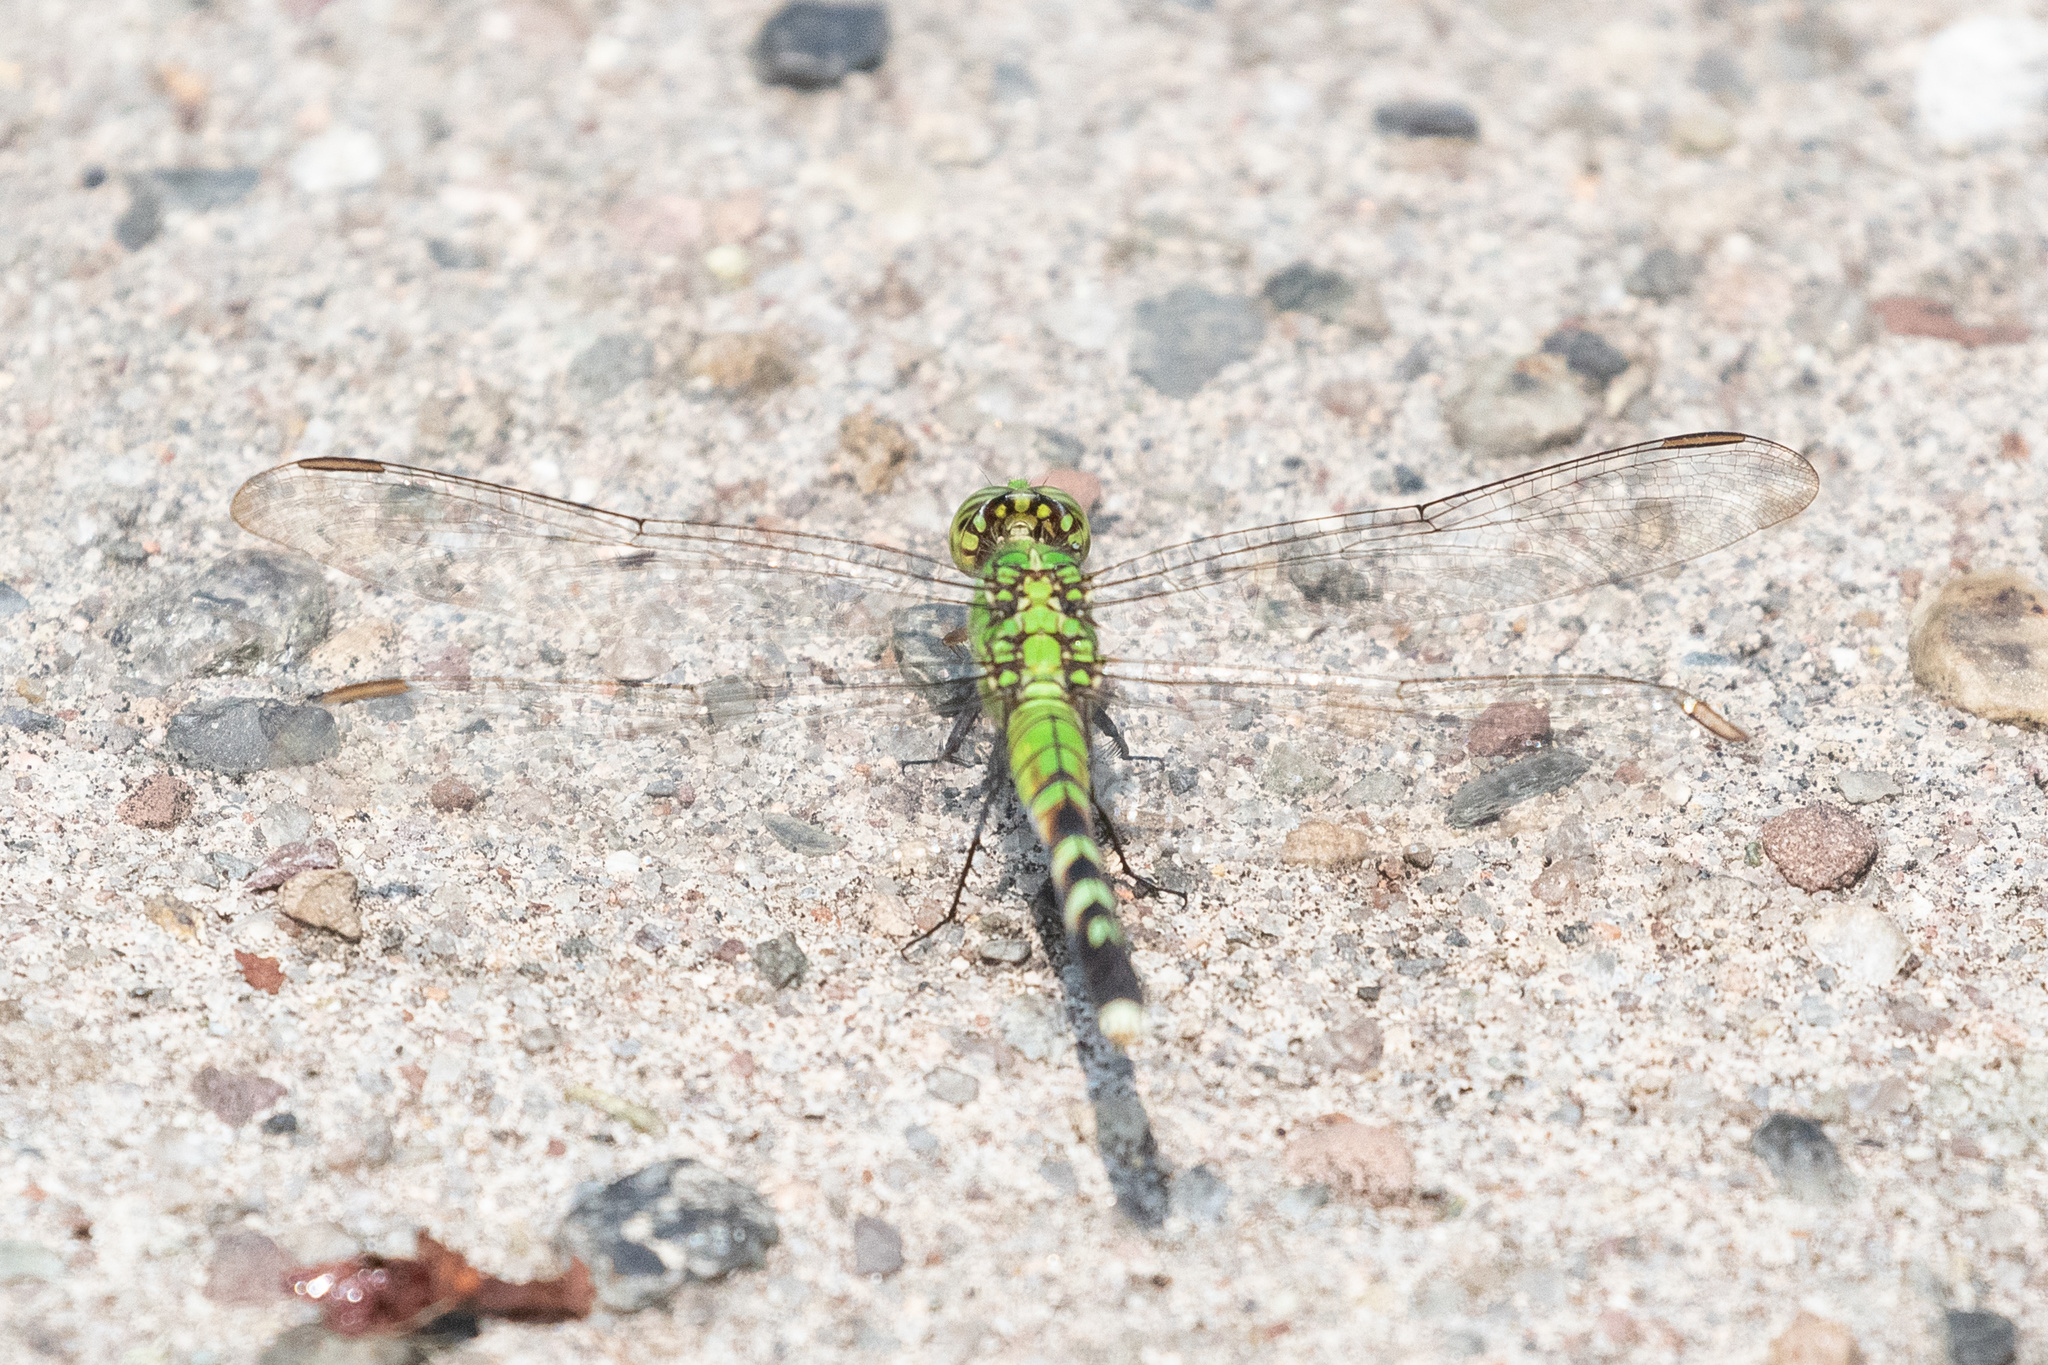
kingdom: Animalia
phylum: Arthropoda
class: Insecta
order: Odonata
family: Libellulidae
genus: Erythemis
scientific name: Erythemis simplicicollis
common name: Eastern pondhawk
